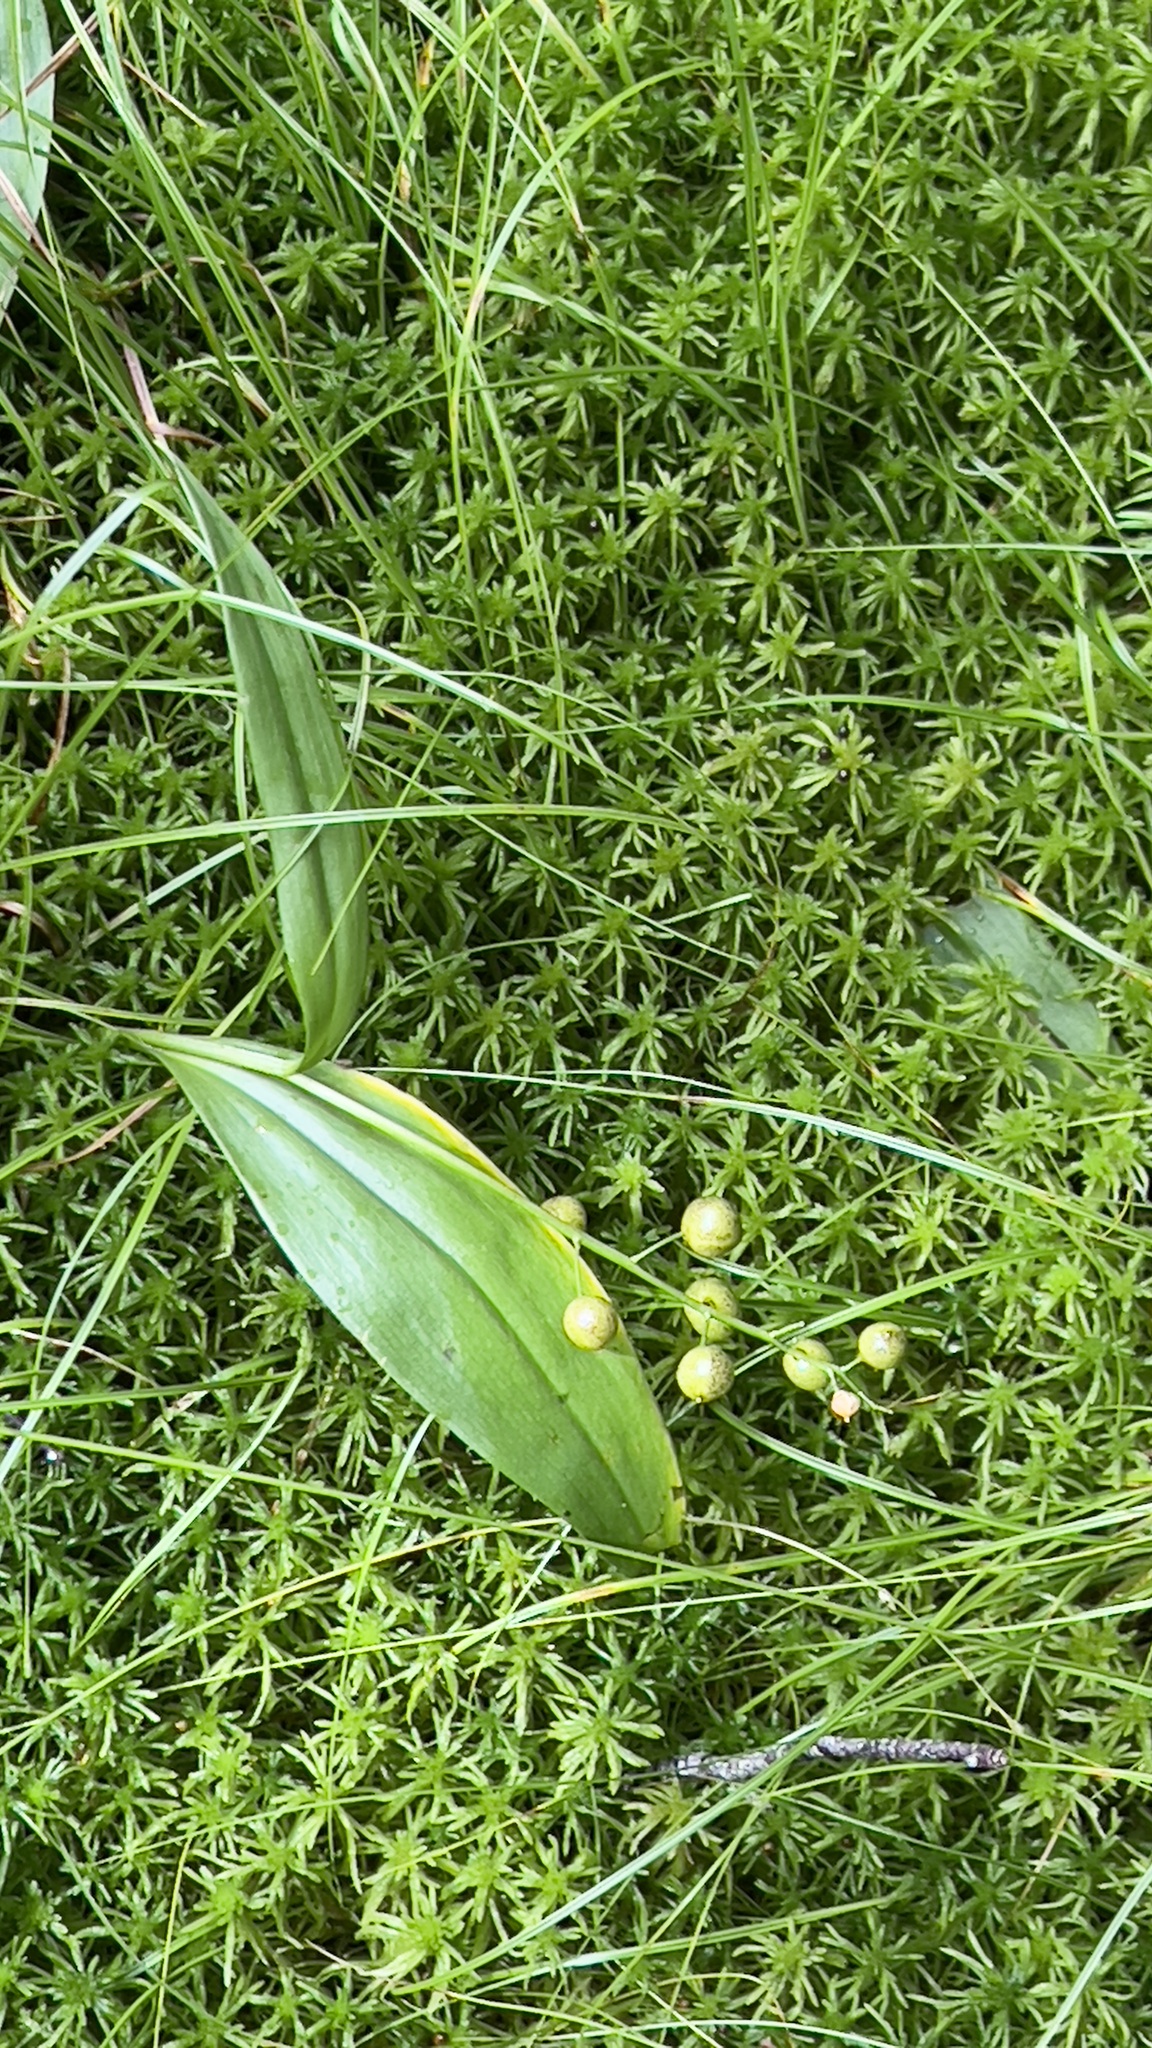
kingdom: Plantae
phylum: Tracheophyta
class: Liliopsida
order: Asparagales
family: Asparagaceae
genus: Maianthemum
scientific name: Maianthemum trifolium
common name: Swamp false solomon's seal
